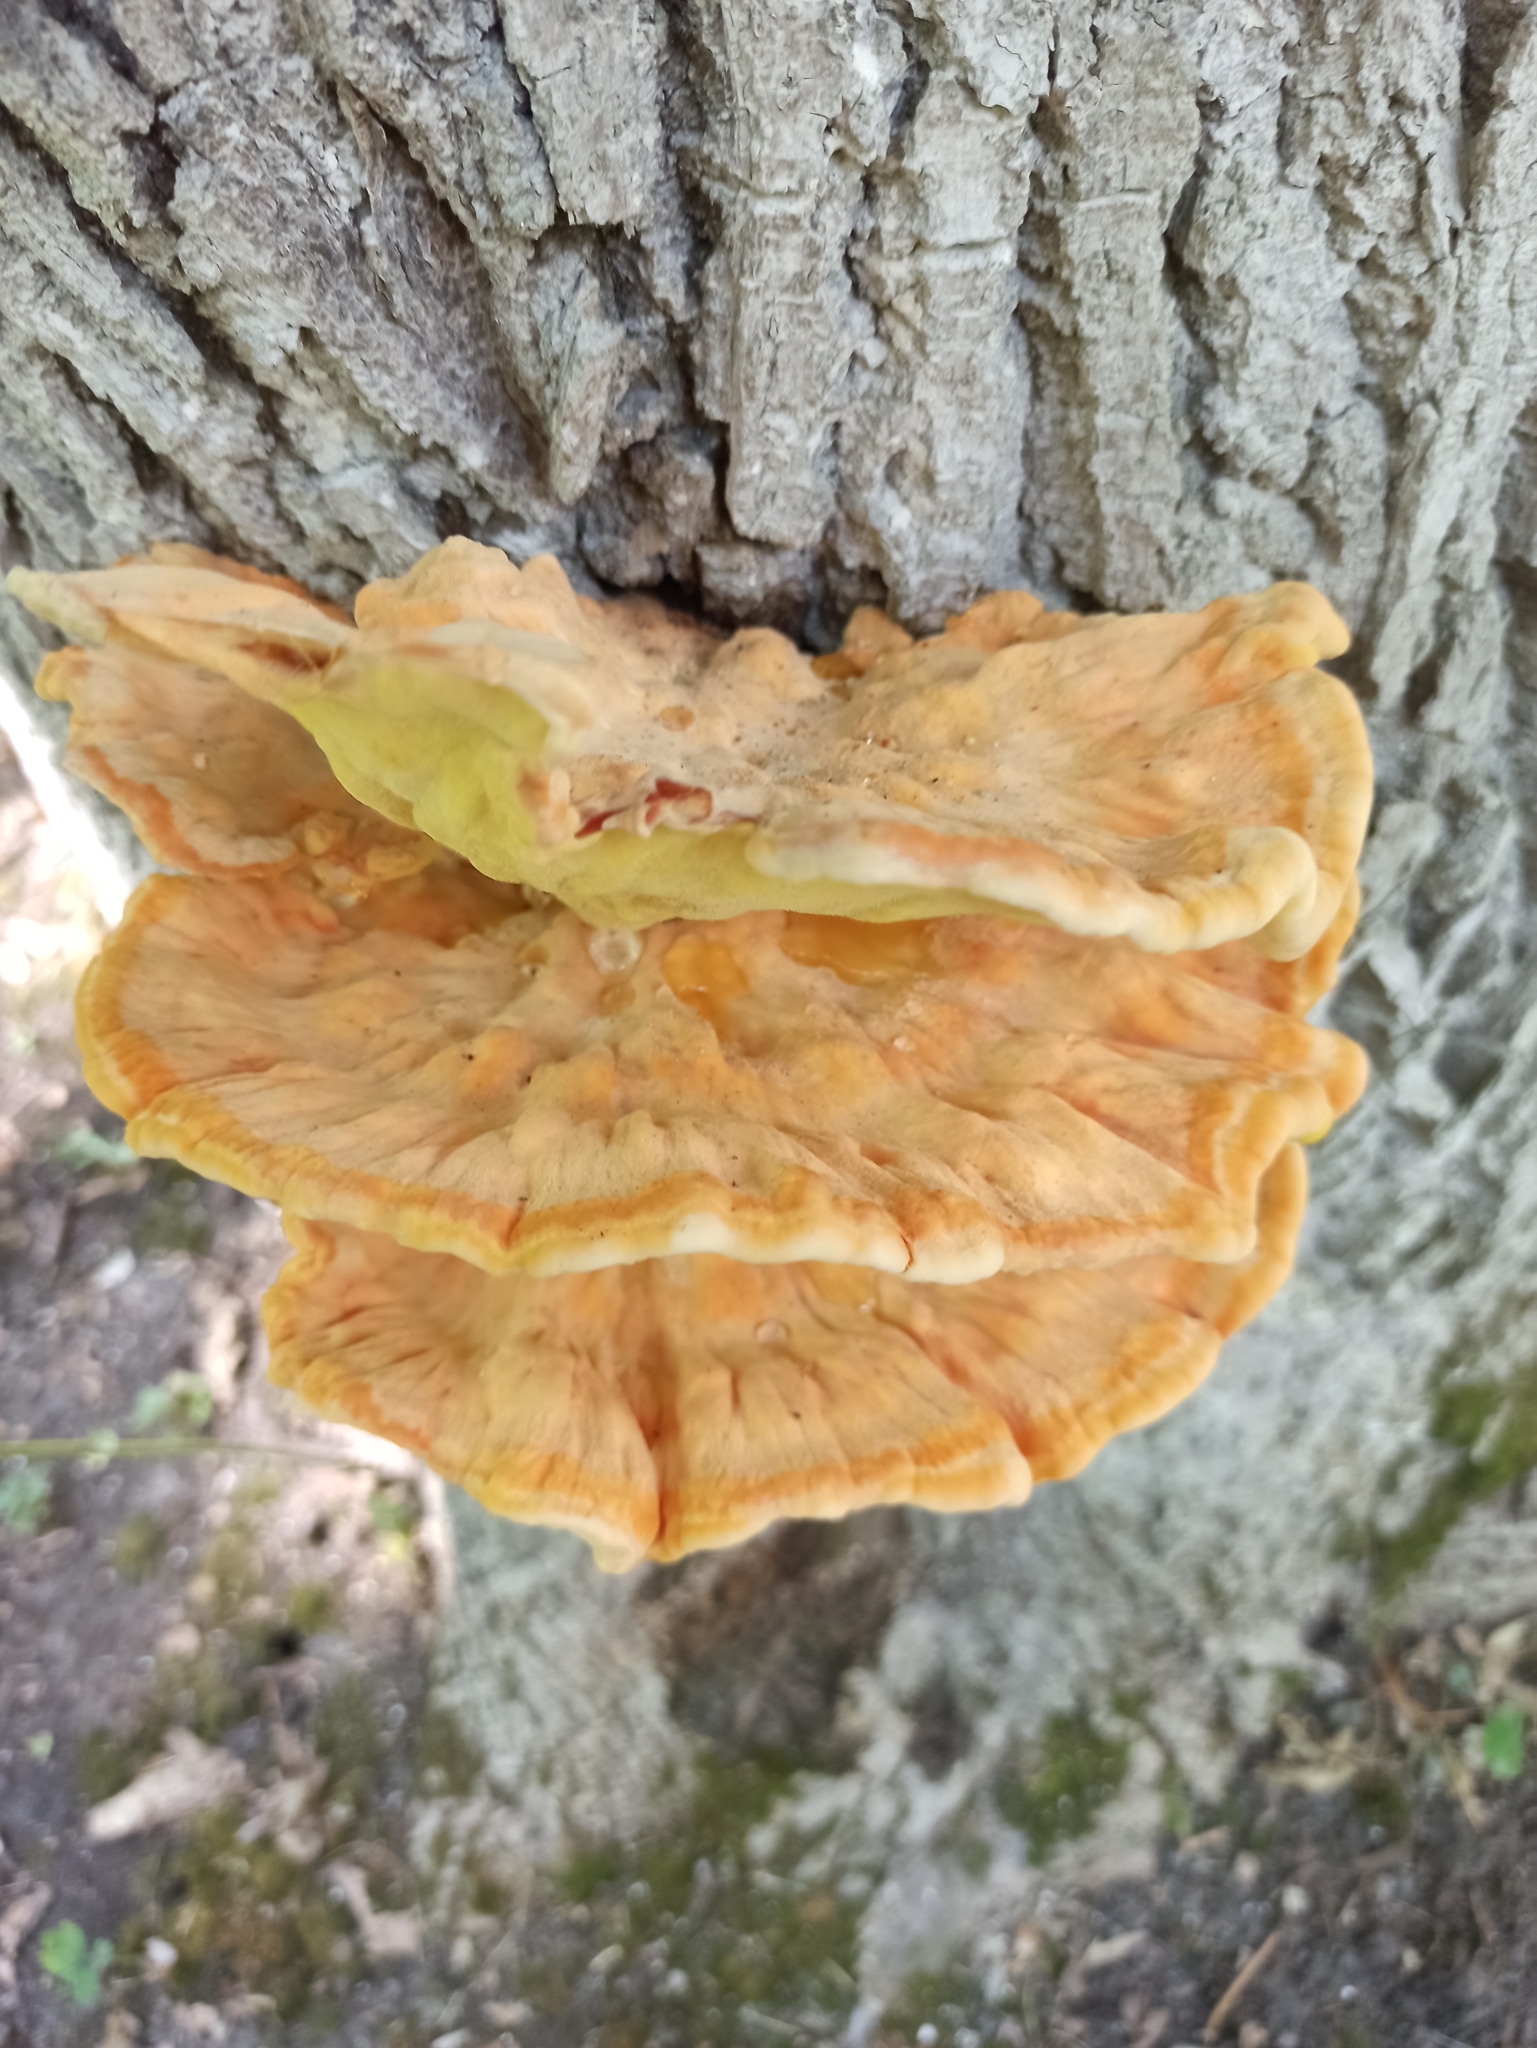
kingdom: Fungi
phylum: Basidiomycota
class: Agaricomycetes
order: Polyporales
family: Laetiporaceae
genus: Laetiporus
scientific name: Laetiporus sulphureus
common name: Chicken of the woods
